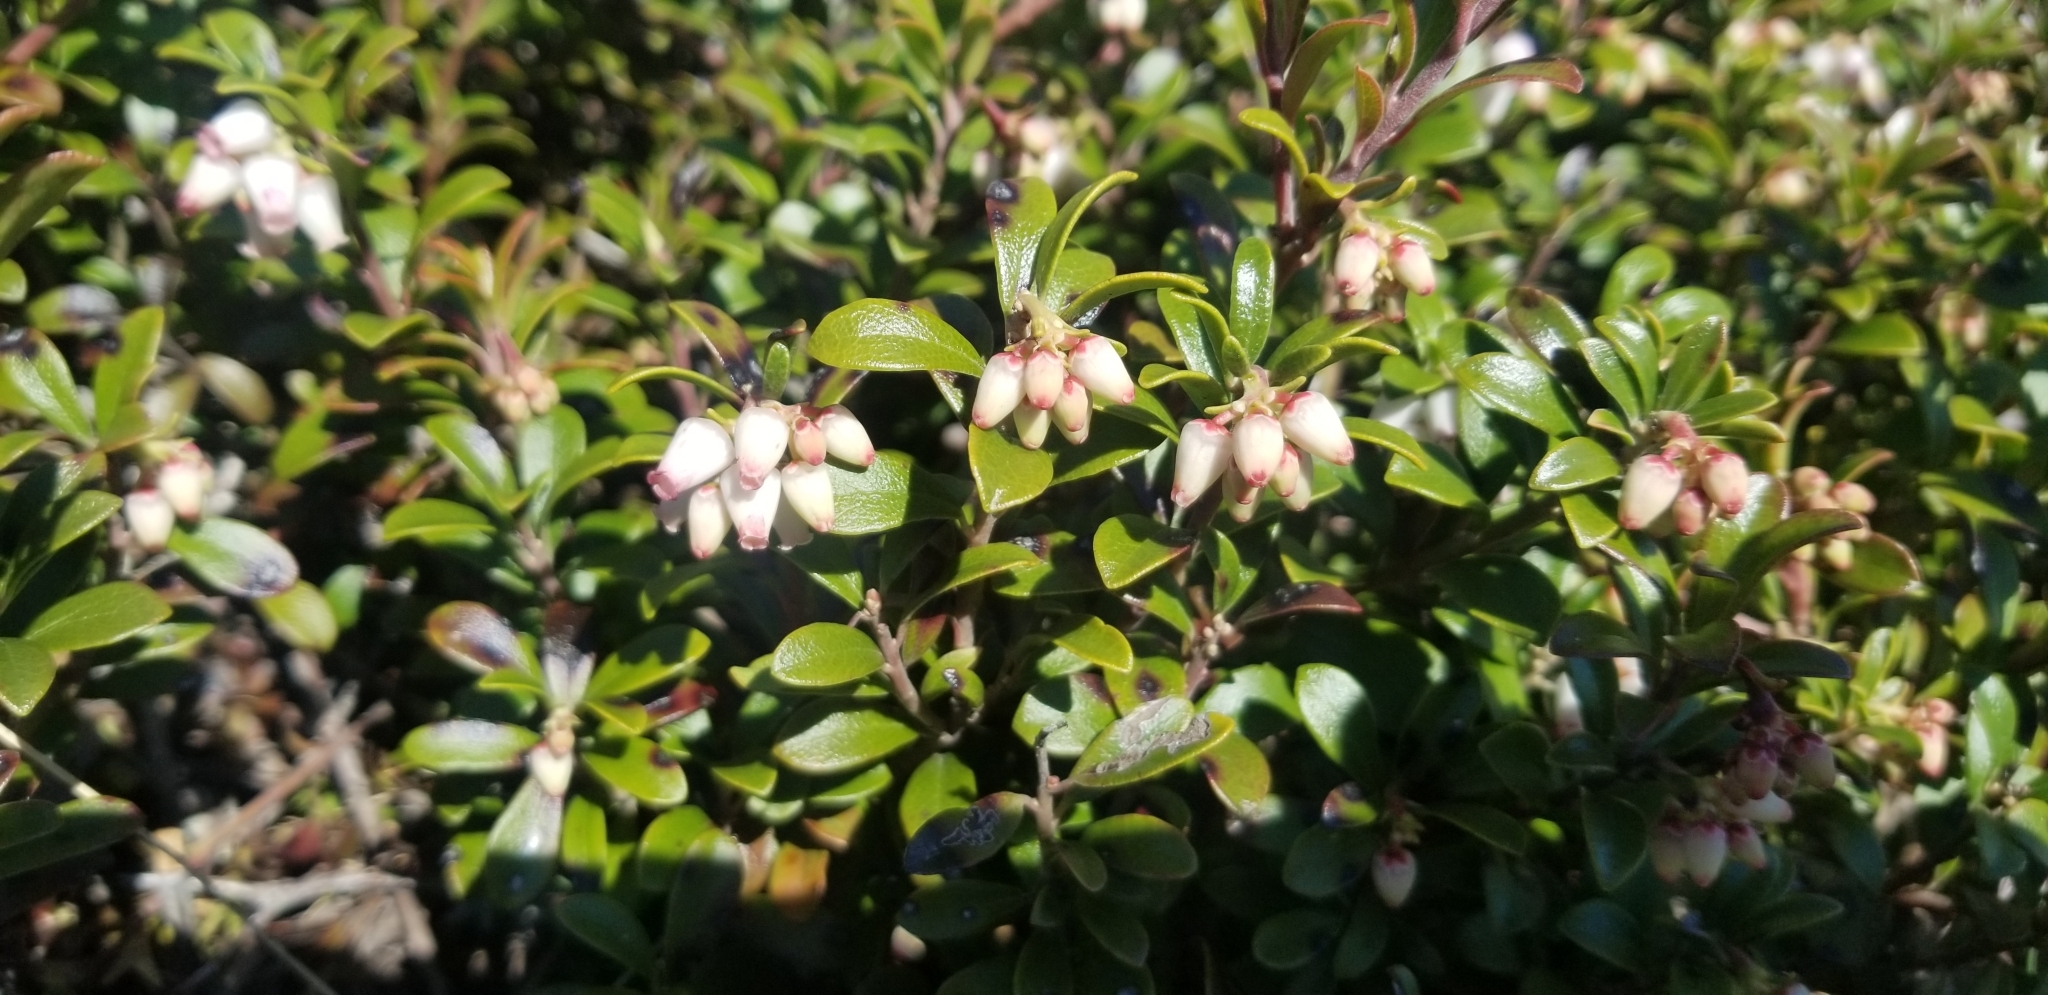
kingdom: Plantae
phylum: Tracheophyta
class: Magnoliopsida
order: Ericales
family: Ericaceae
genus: Arctostaphylos
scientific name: Arctostaphylos uva-ursi
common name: Bearberry
